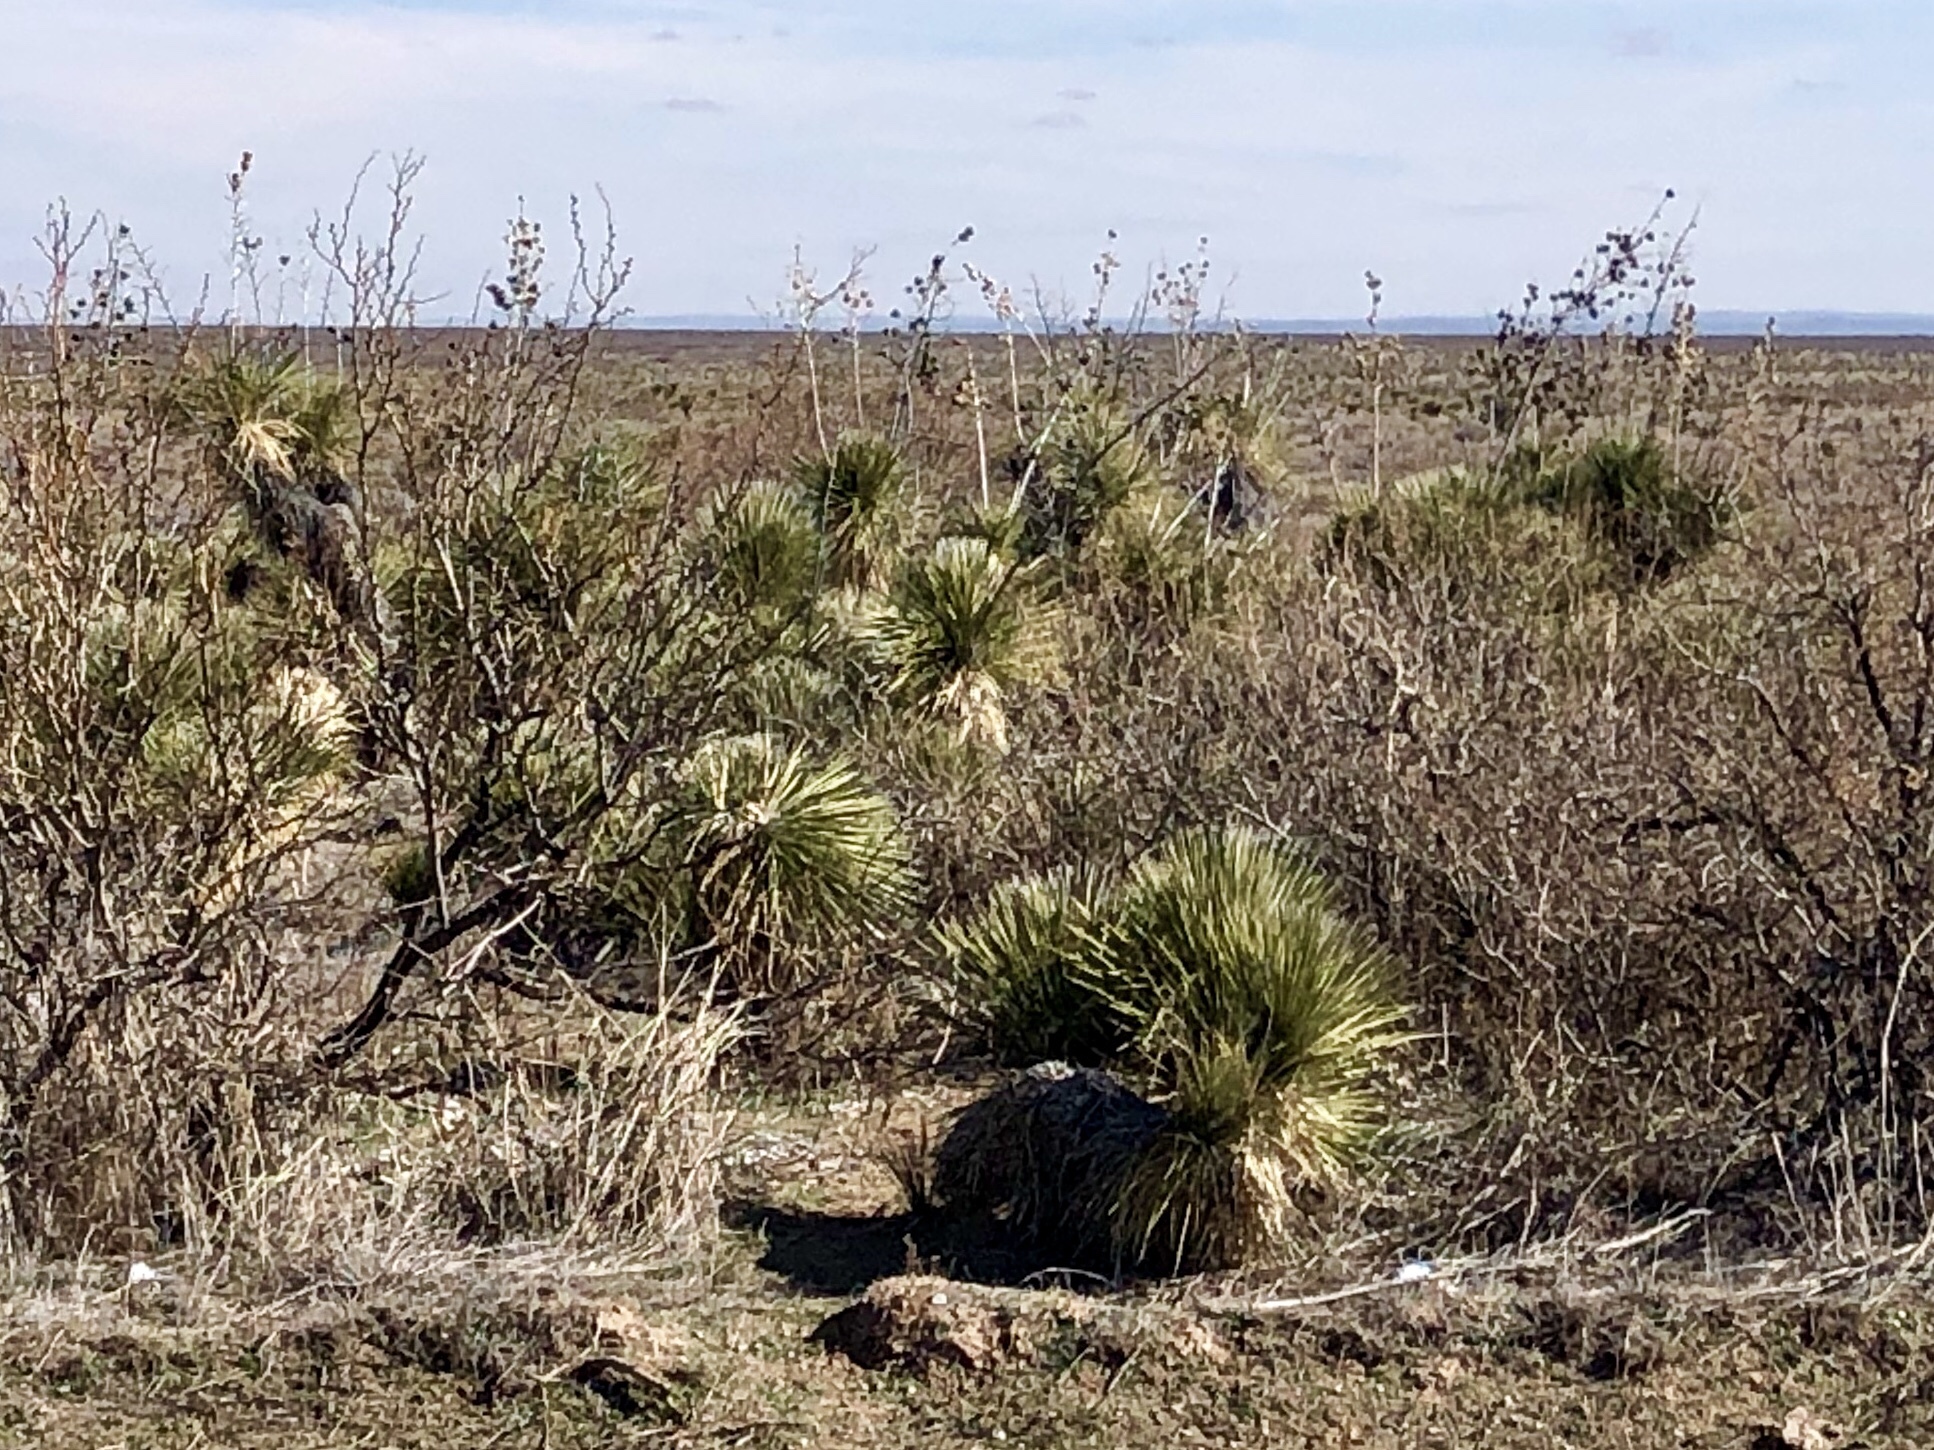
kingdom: Plantae
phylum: Tracheophyta
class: Liliopsida
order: Asparagales
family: Asparagaceae
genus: Yucca
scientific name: Yucca elata
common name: Palmella
